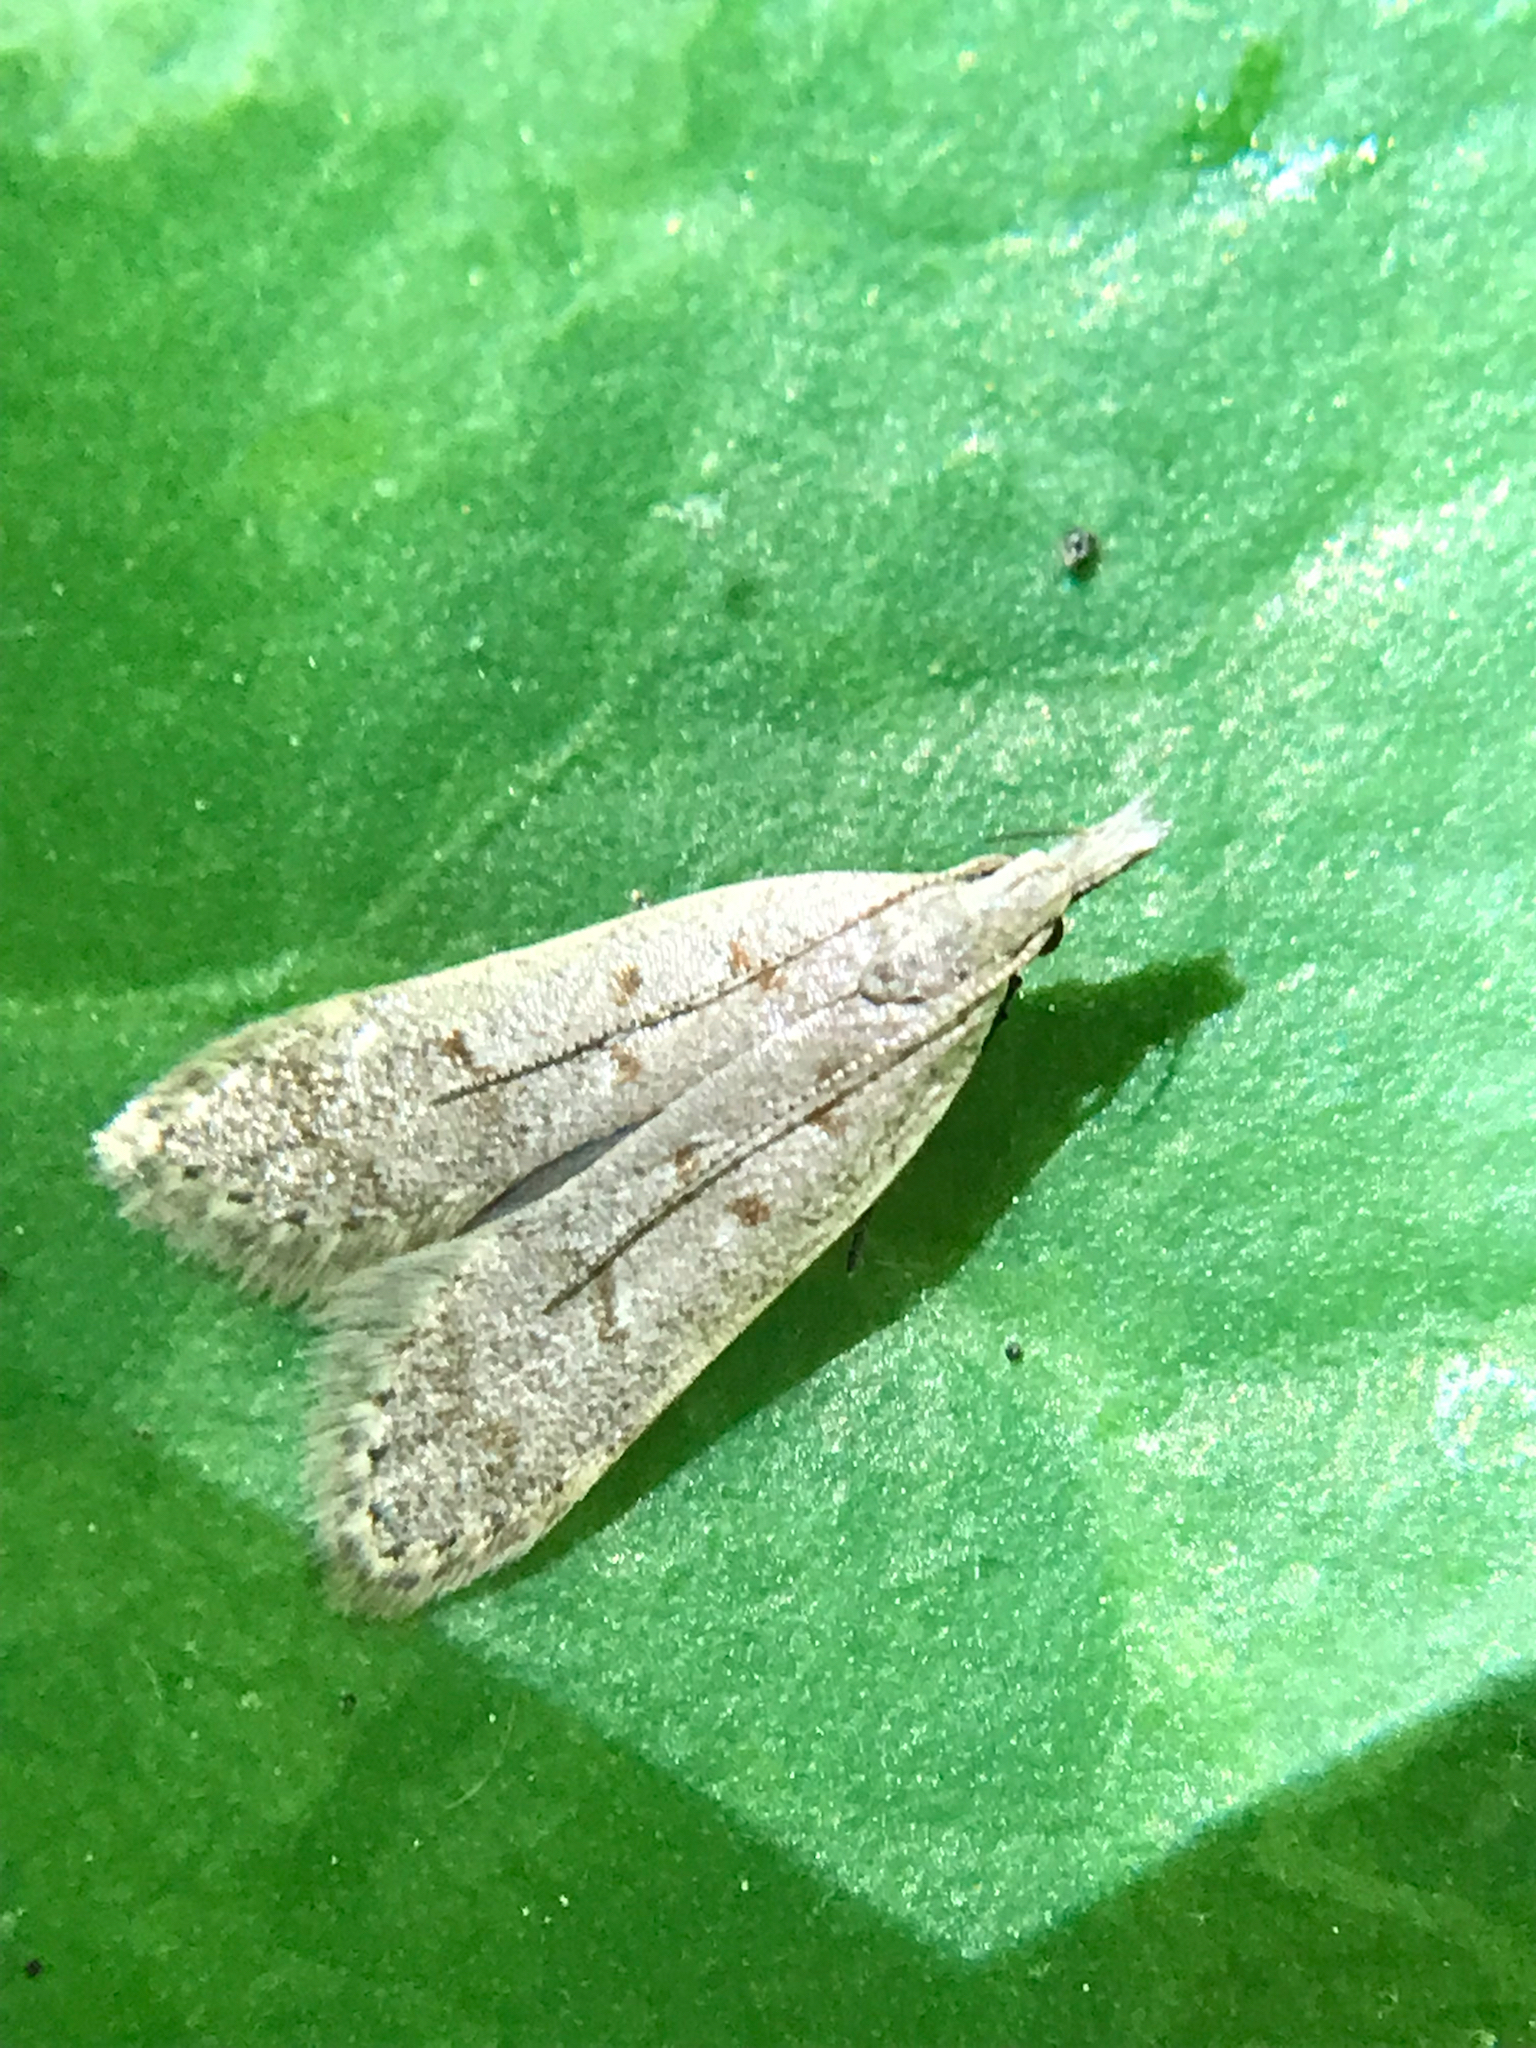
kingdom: Animalia
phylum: Arthropoda
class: Insecta
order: Lepidoptera
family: Gelechiidae
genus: Dichomeris
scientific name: Dichomeris punctidiscellus
